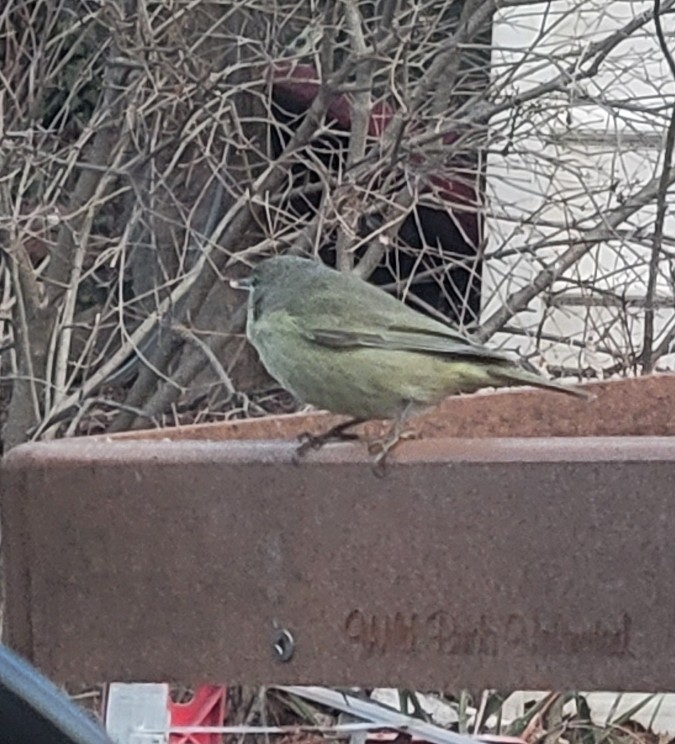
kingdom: Animalia
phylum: Chordata
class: Aves
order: Passeriformes
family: Parulidae
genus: Leiothlypis
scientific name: Leiothlypis celata
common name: Orange-crowned warbler
